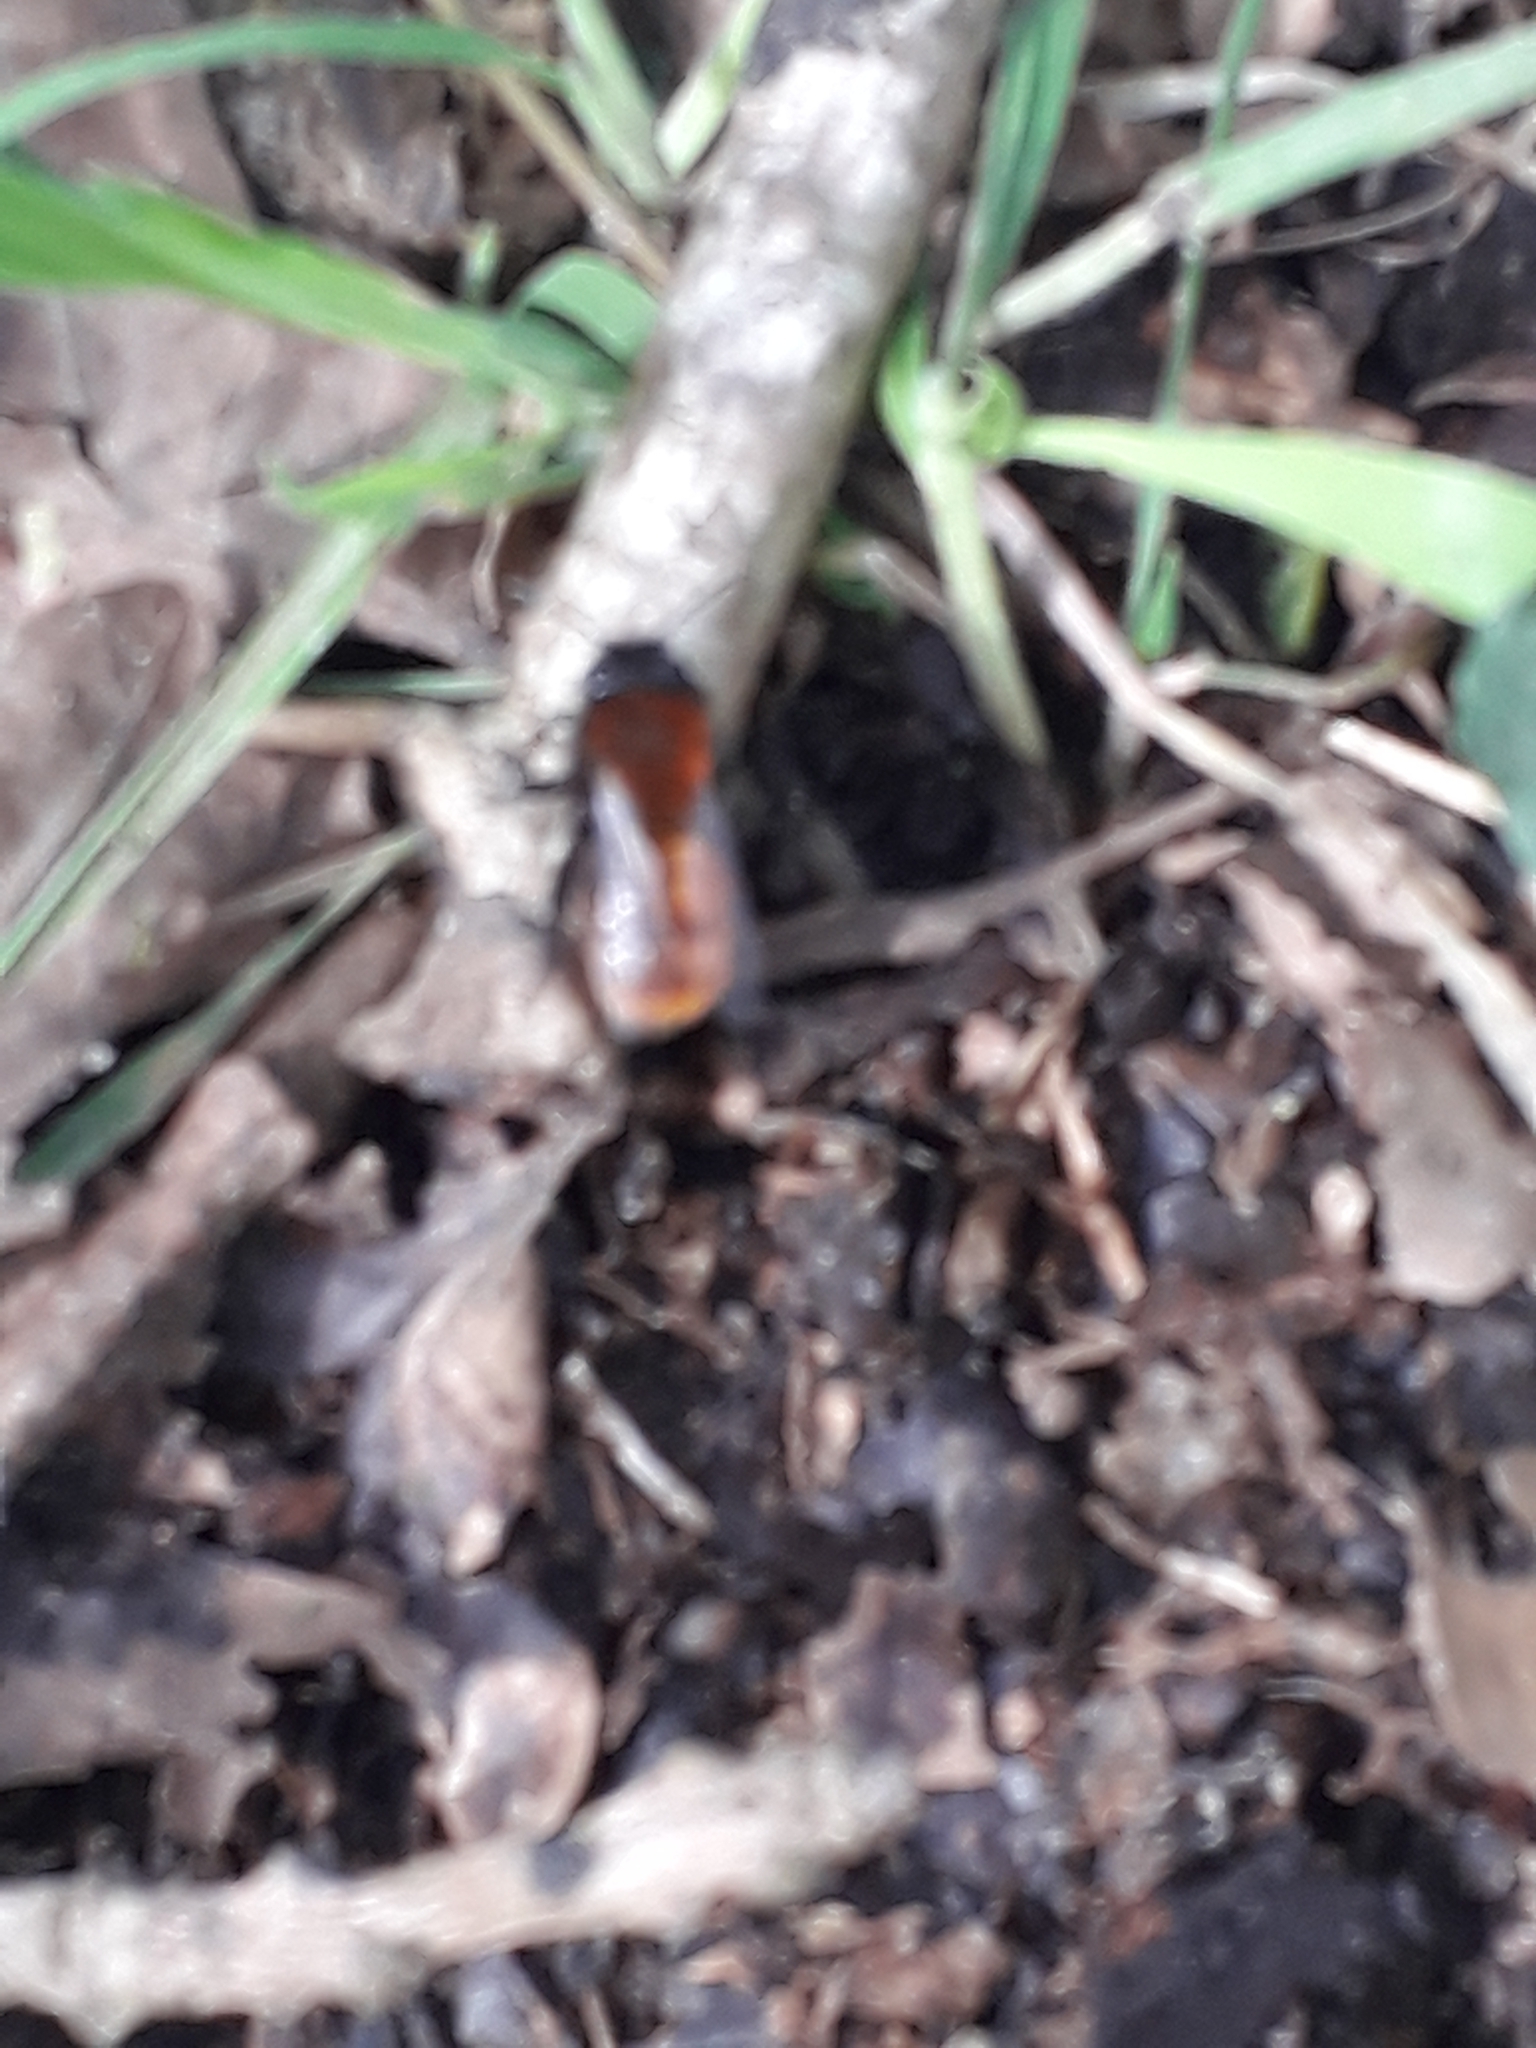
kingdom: Animalia
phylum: Arthropoda
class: Insecta
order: Hymenoptera
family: Andrenidae
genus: Andrena
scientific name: Andrena fulva
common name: Tawny mining bee
